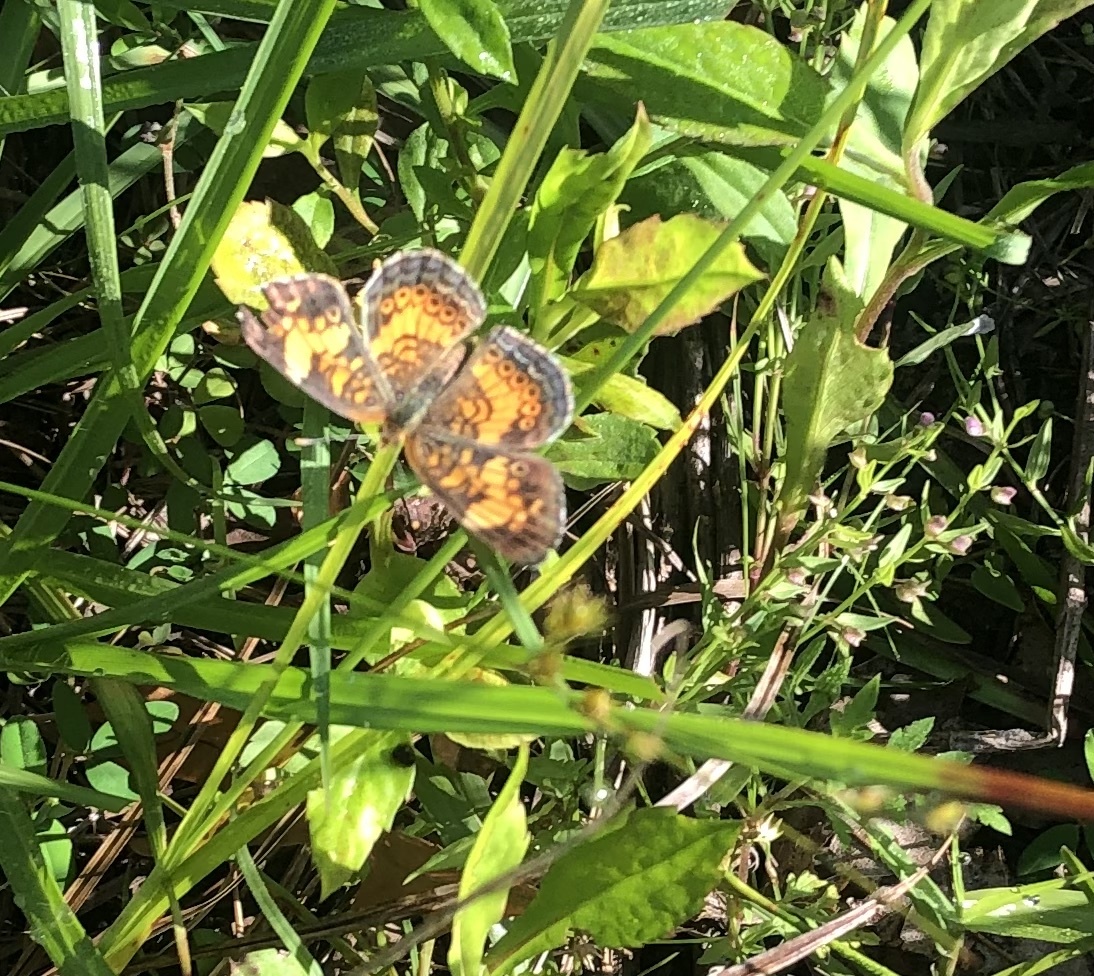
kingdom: Animalia
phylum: Arthropoda
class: Insecta
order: Lepidoptera
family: Nymphalidae
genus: Phyciodes
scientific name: Phyciodes tharos
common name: Pearl crescent
